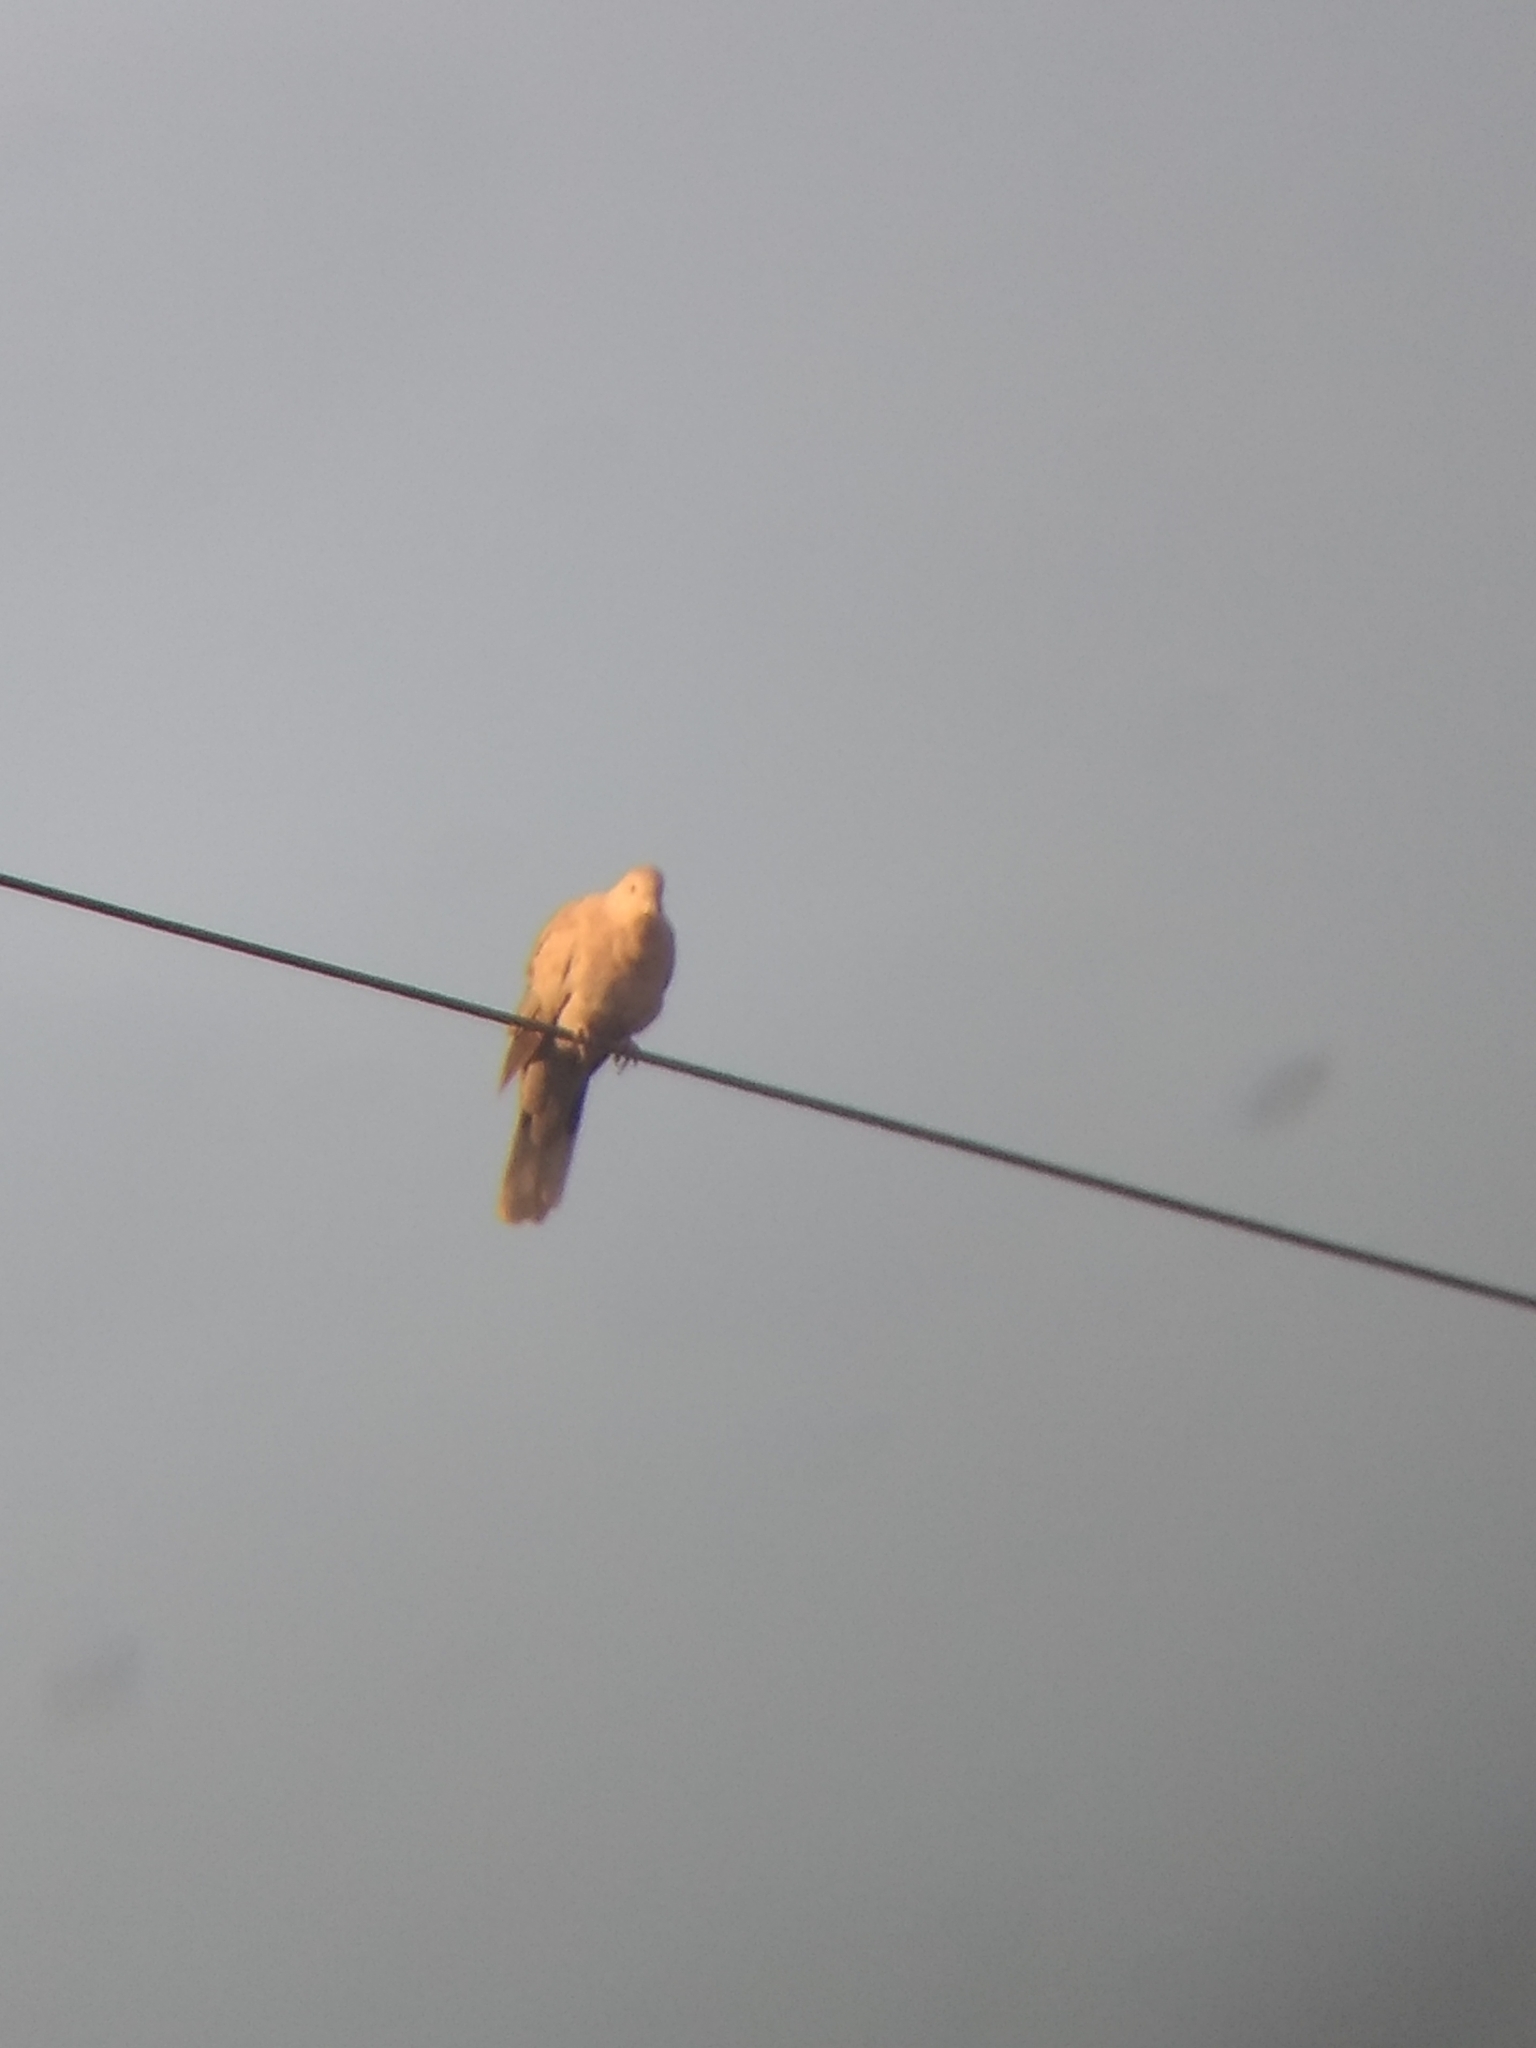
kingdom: Animalia
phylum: Chordata
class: Aves
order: Columbiformes
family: Columbidae
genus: Streptopelia
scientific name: Streptopelia decaocto
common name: Eurasian collared dove
